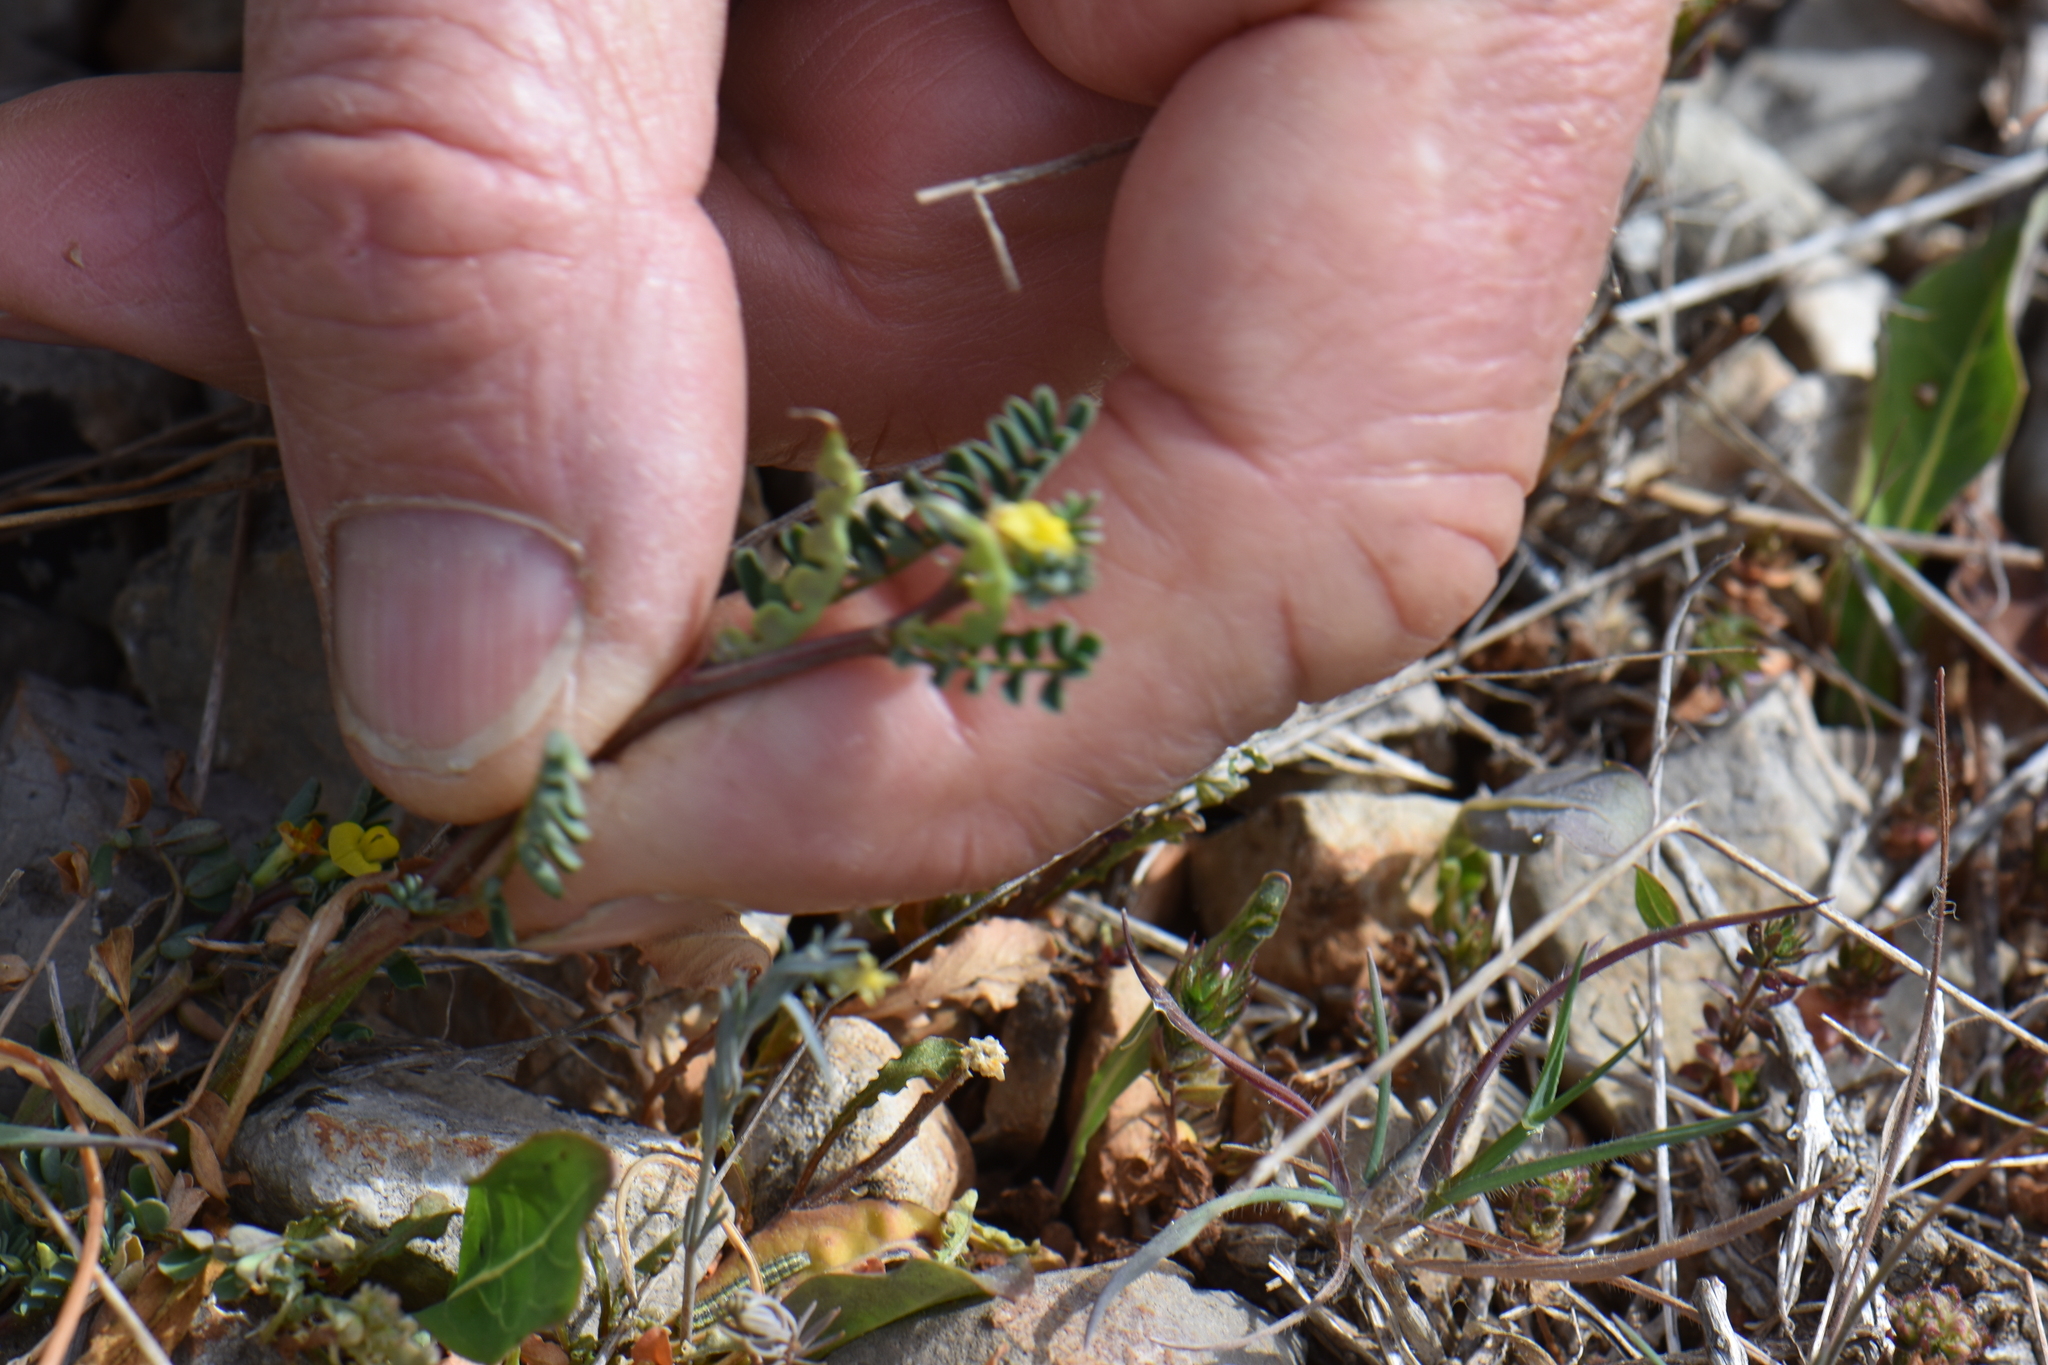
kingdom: Plantae
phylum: Tracheophyta
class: Magnoliopsida
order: Fabales
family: Fabaceae
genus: Hippocrepis
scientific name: Hippocrepis biflora
